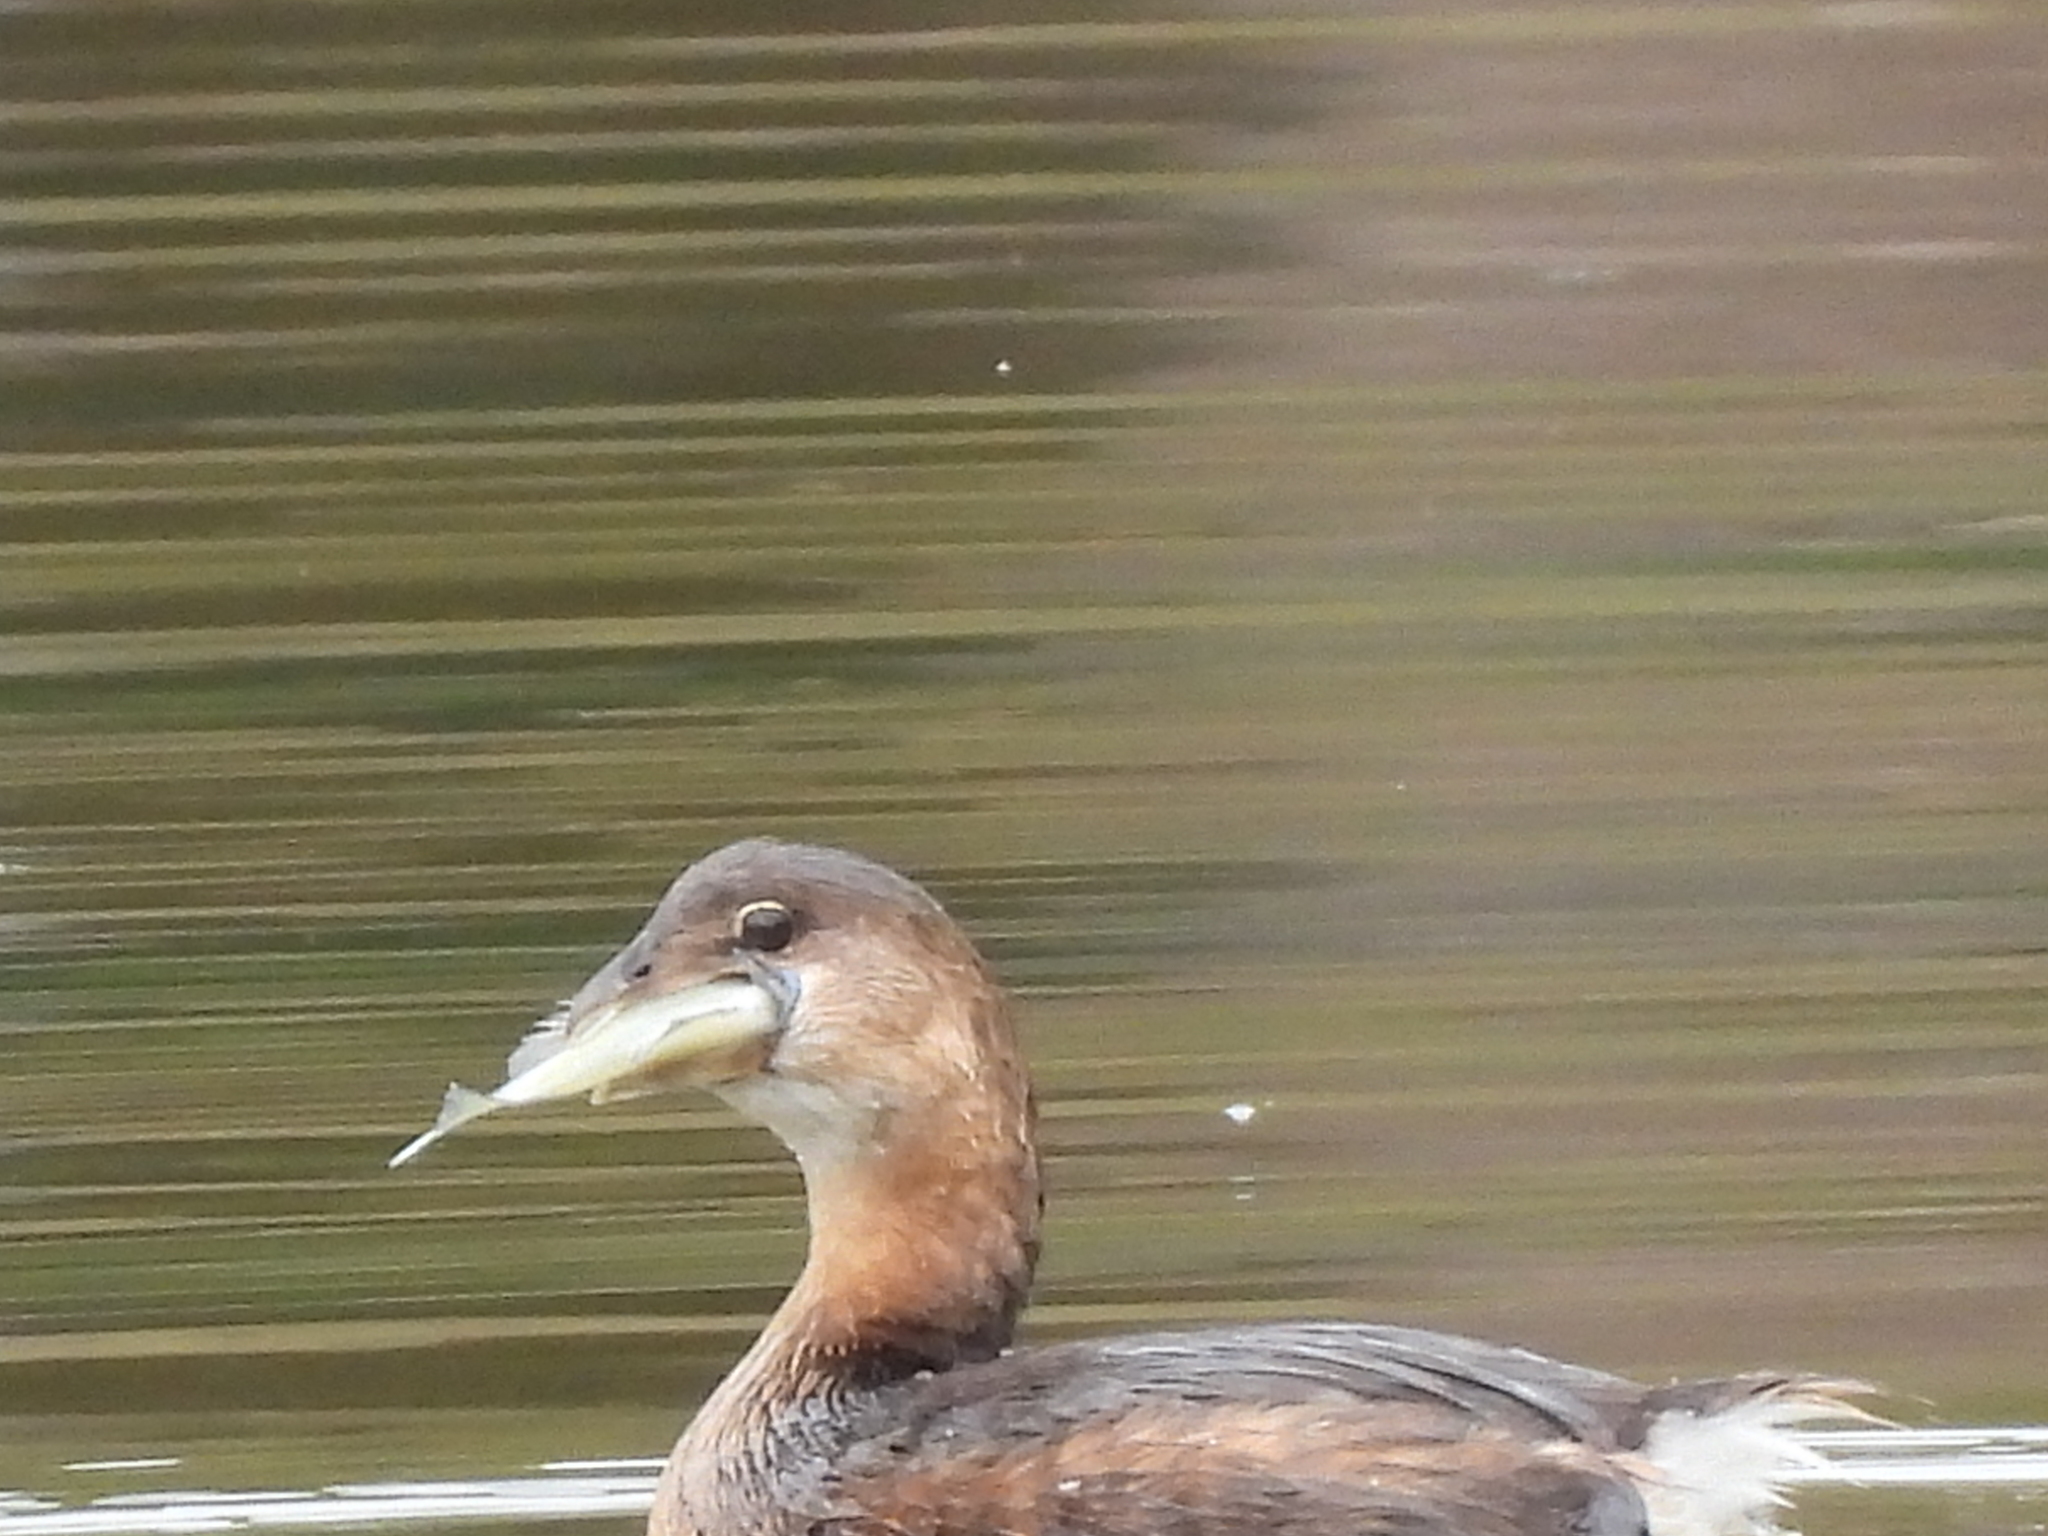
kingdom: Animalia
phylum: Chordata
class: Aves
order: Podicipediformes
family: Podicipedidae
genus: Podilymbus
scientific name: Podilymbus podiceps
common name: Pied-billed grebe
